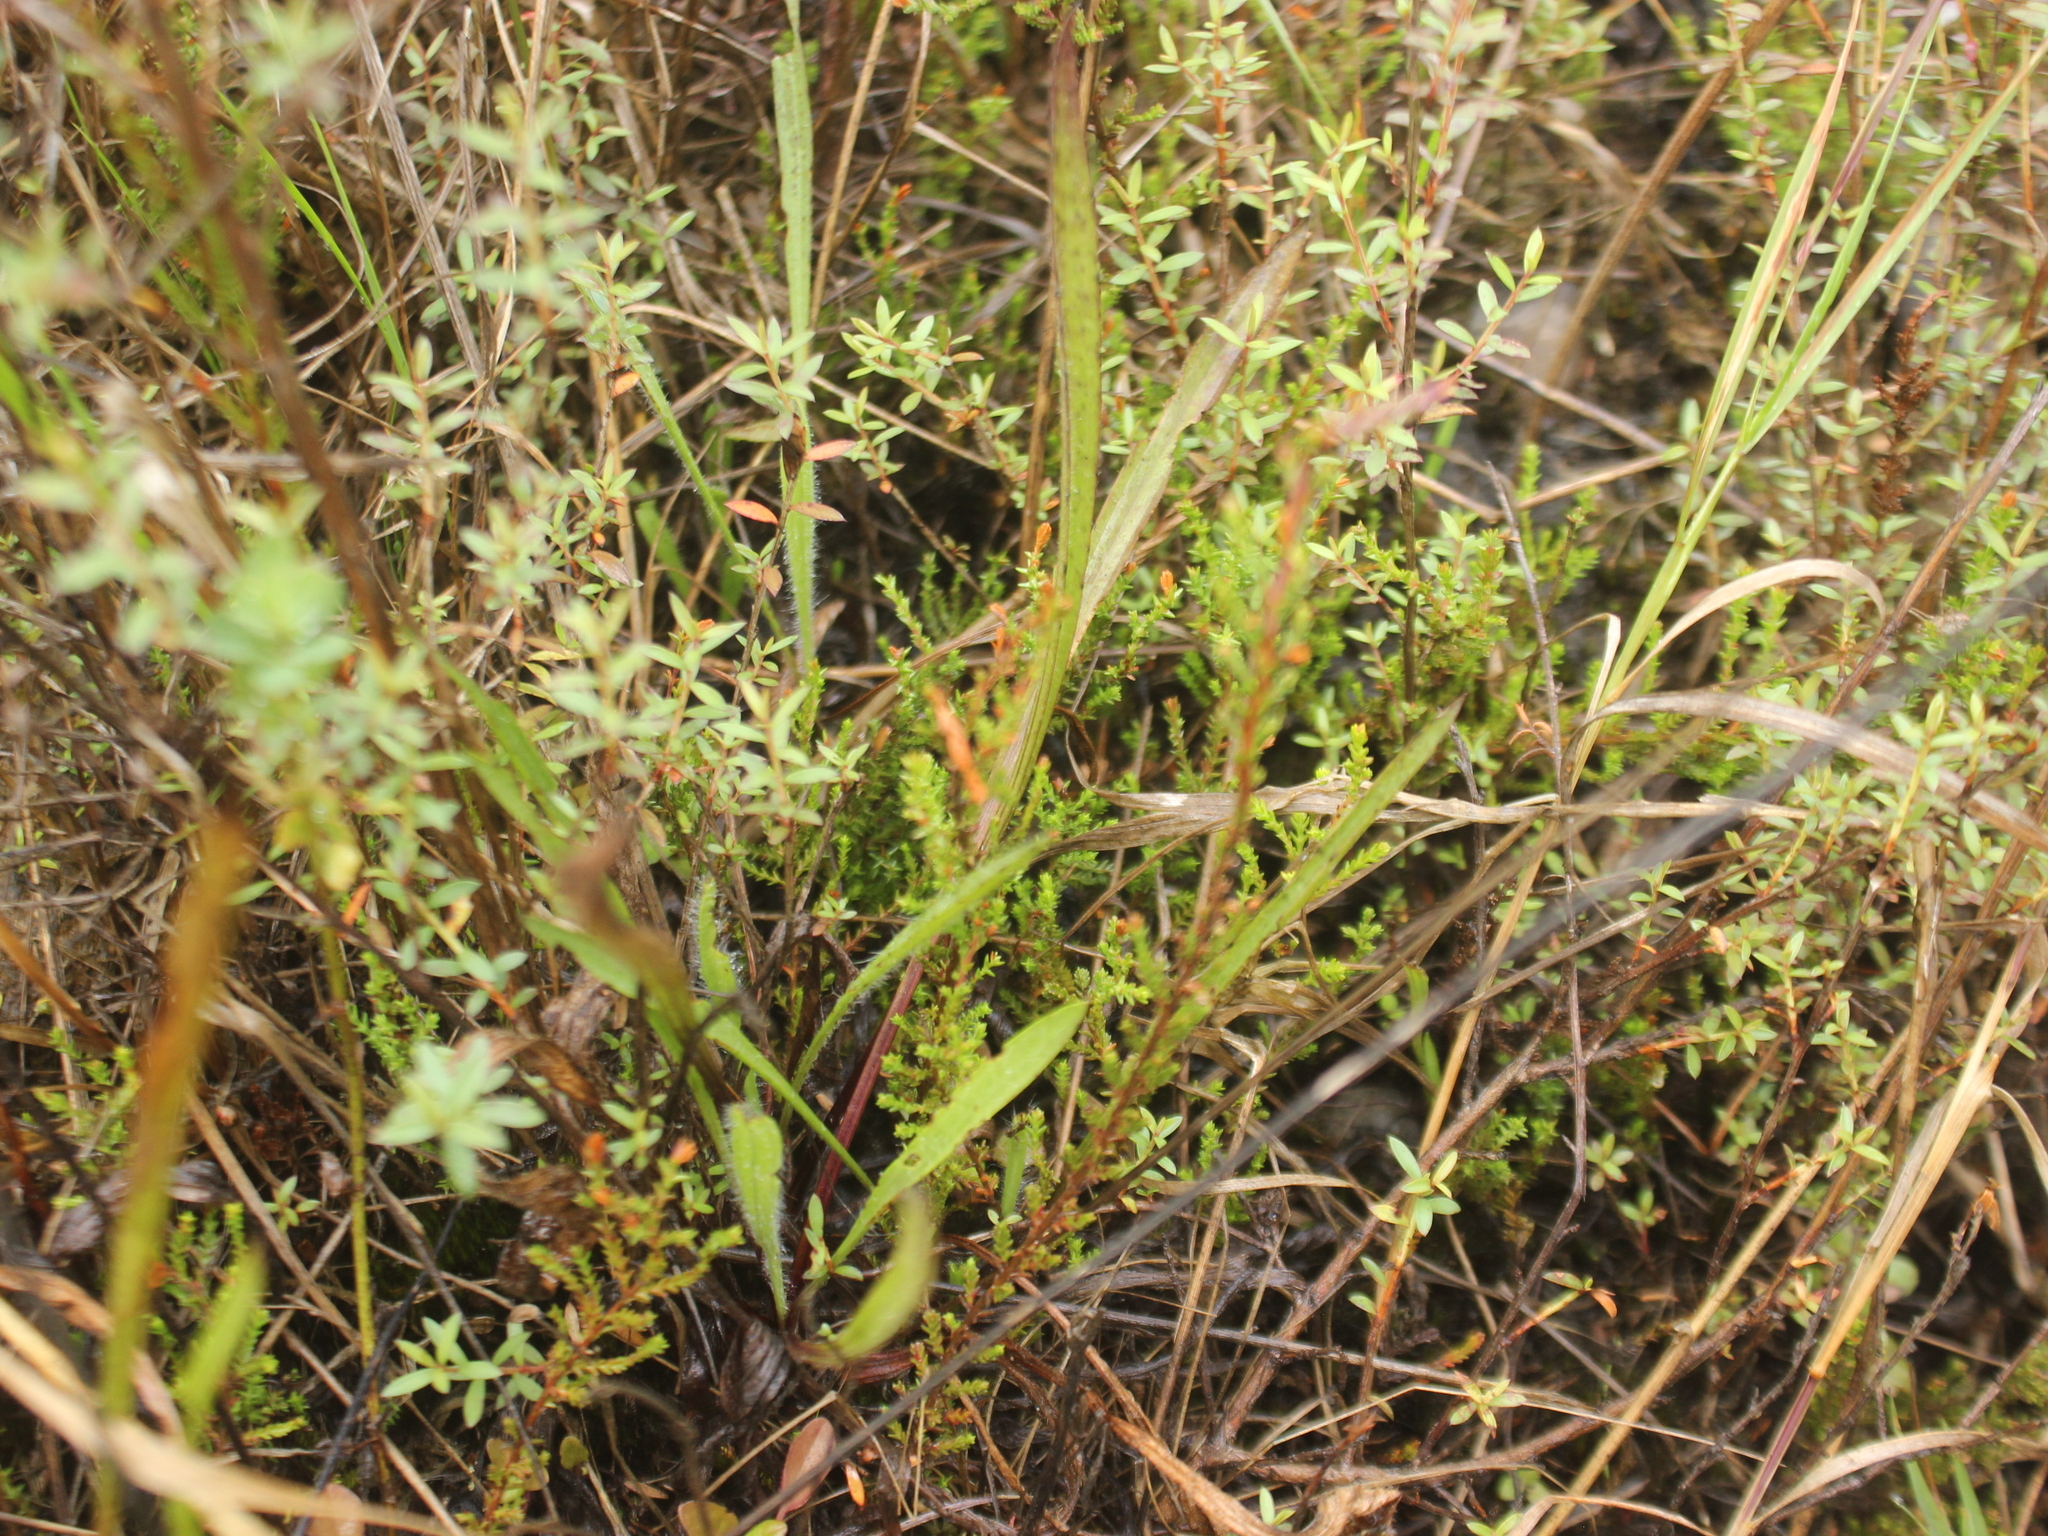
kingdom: Plantae
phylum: Tracheophyta
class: Liliopsida
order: Asparagales
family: Orchidaceae
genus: Spiranthes
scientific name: Spiranthes australis
